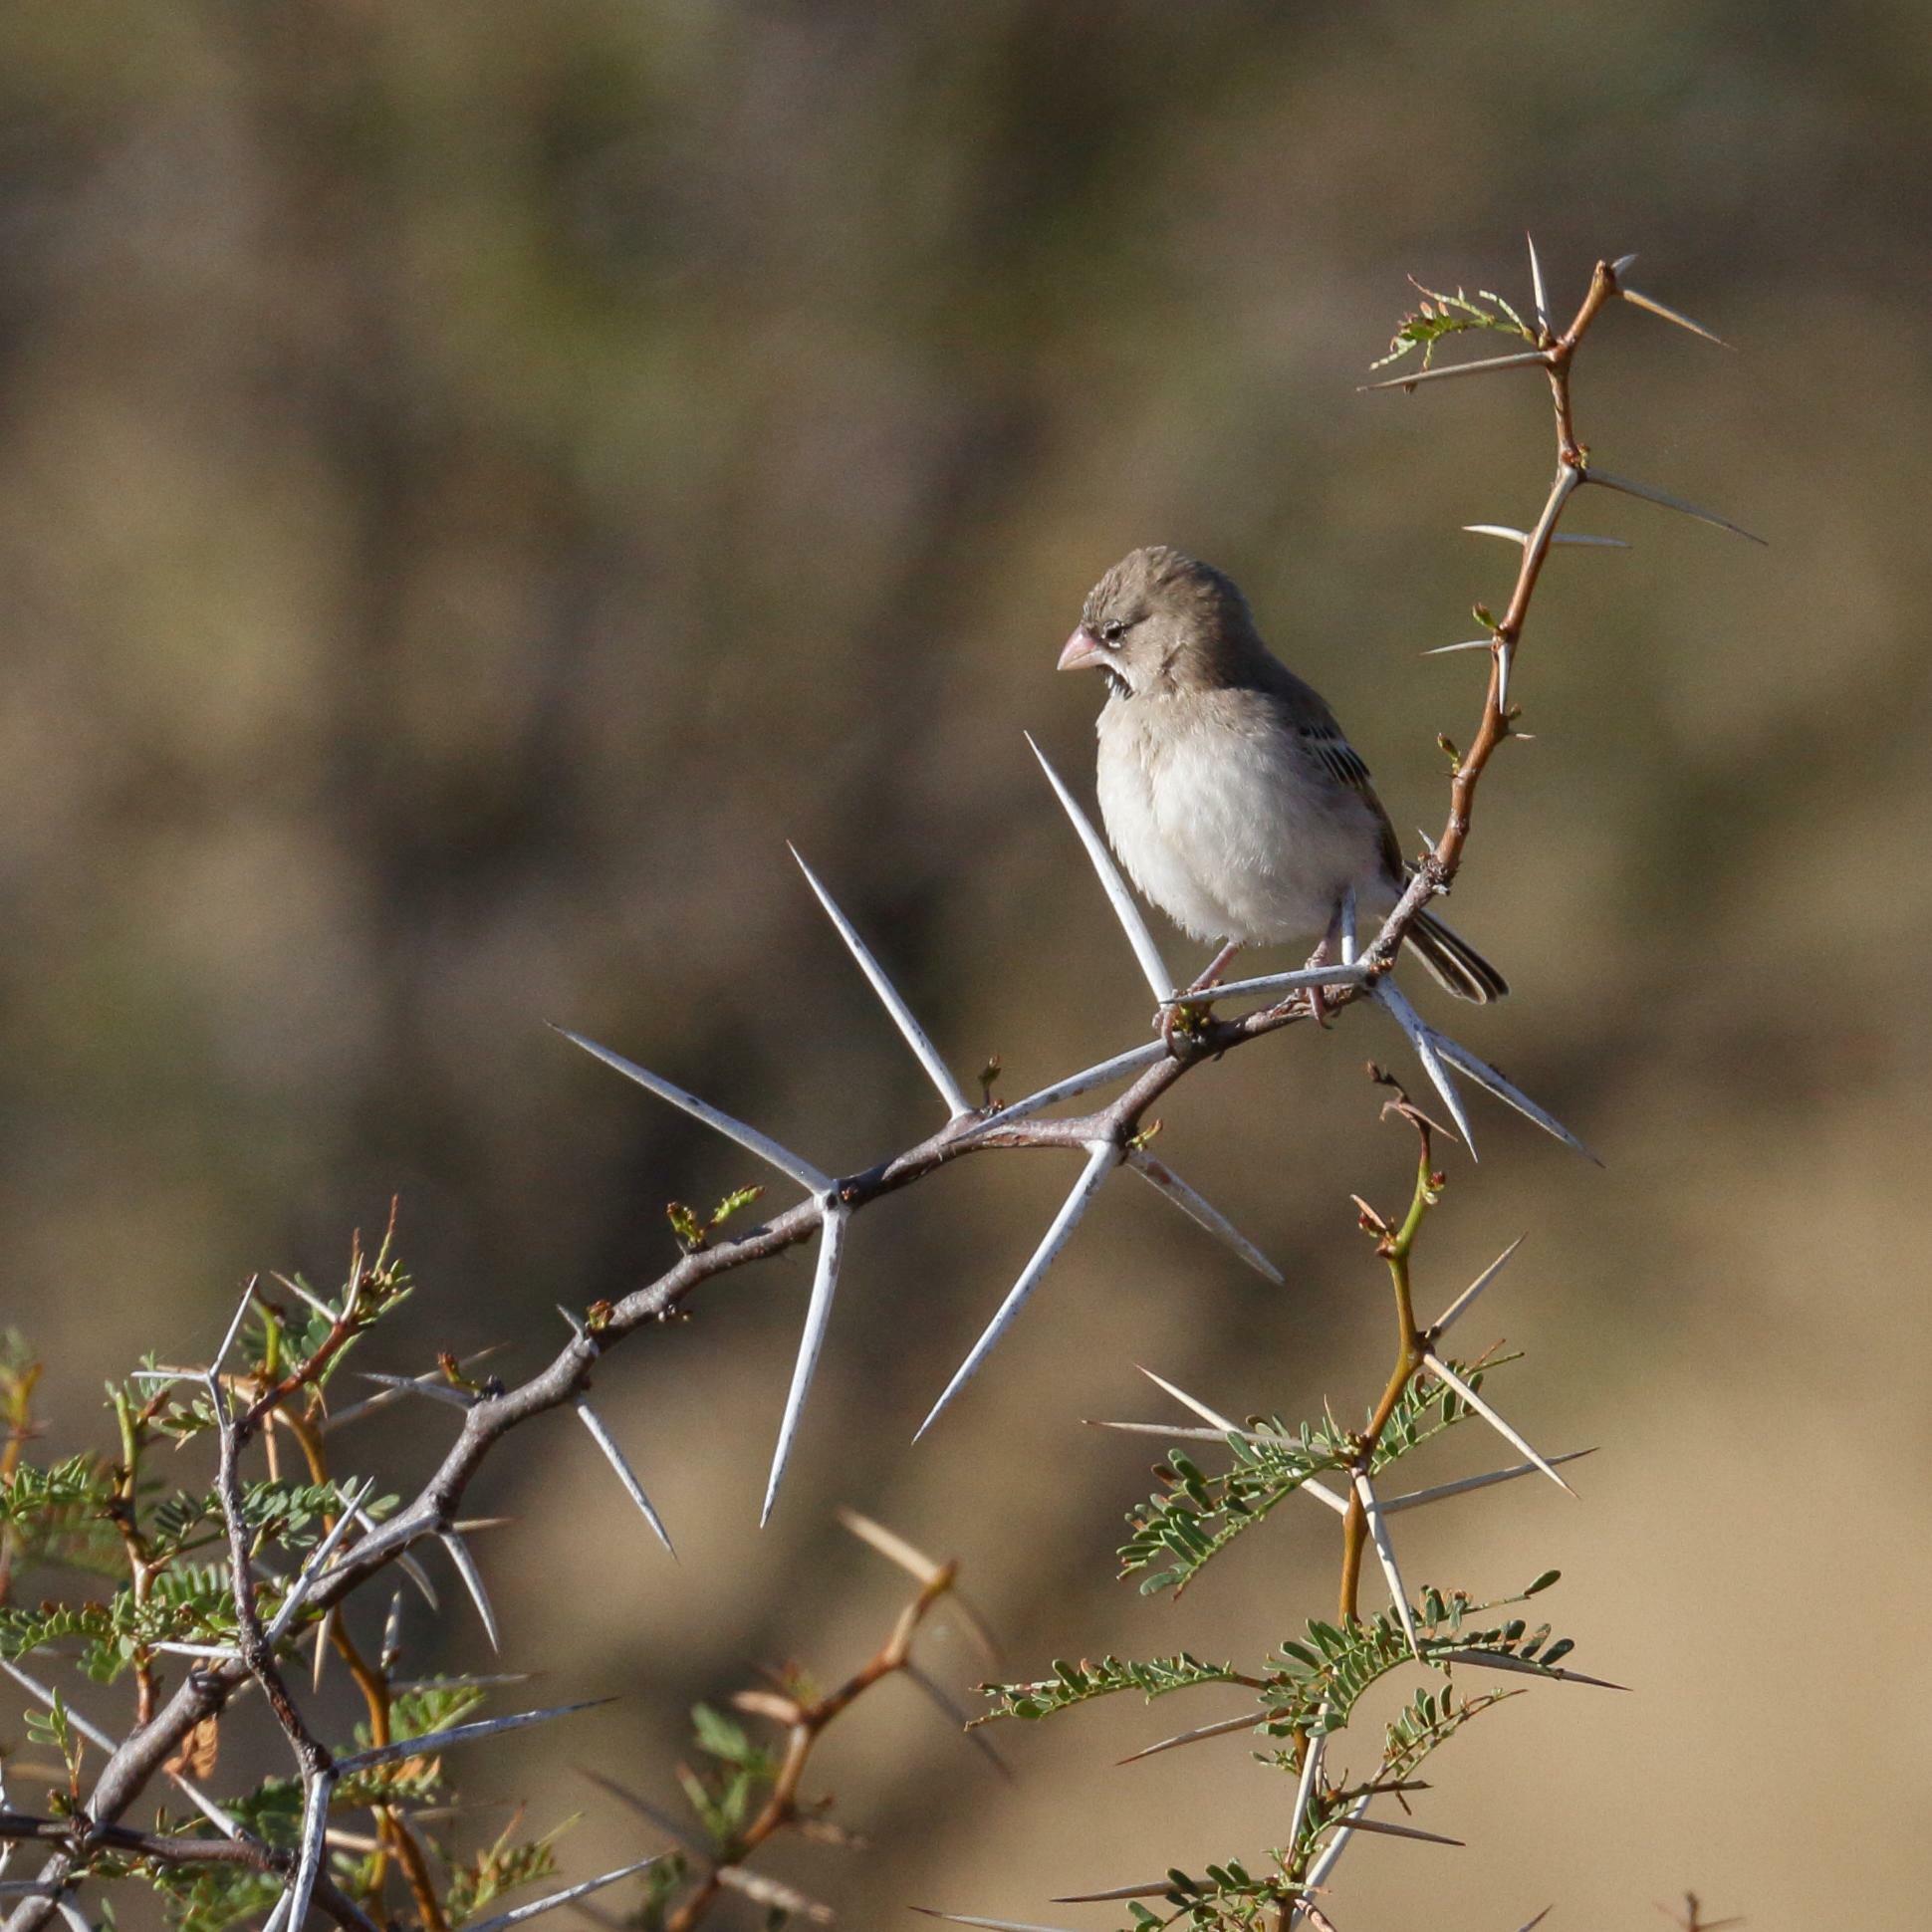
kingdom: Animalia
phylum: Chordata
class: Aves
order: Passeriformes
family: Ploceidae
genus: Sporopipes
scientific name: Sporopipes squamifrons
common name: Scaly-feathered weaver
